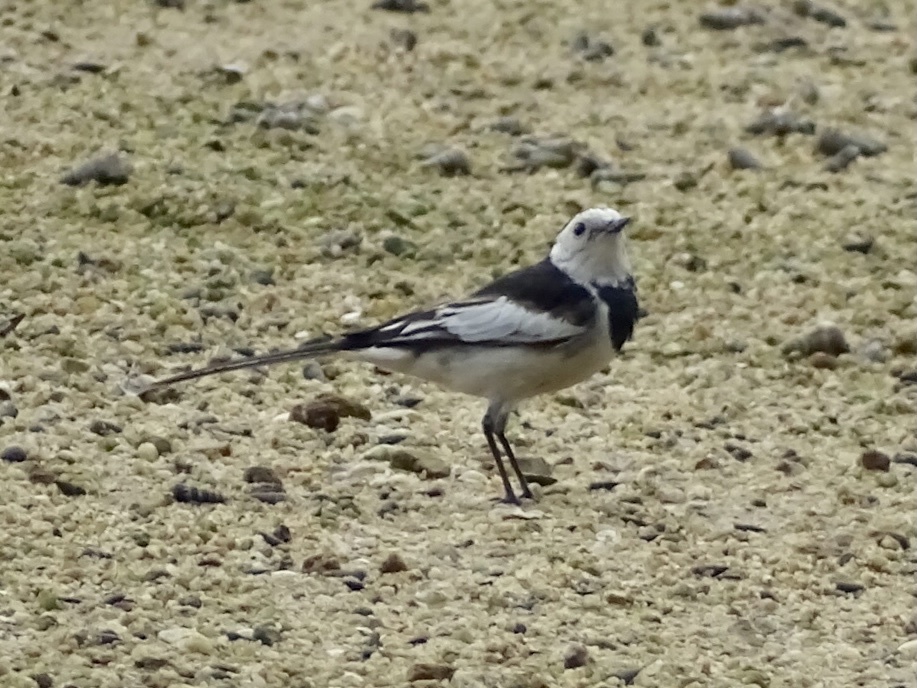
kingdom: Animalia
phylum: Chordata
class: Aves
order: Passeriformes
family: Motacillidae
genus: Motacilla
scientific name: Motacilla alba
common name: White wagtail
